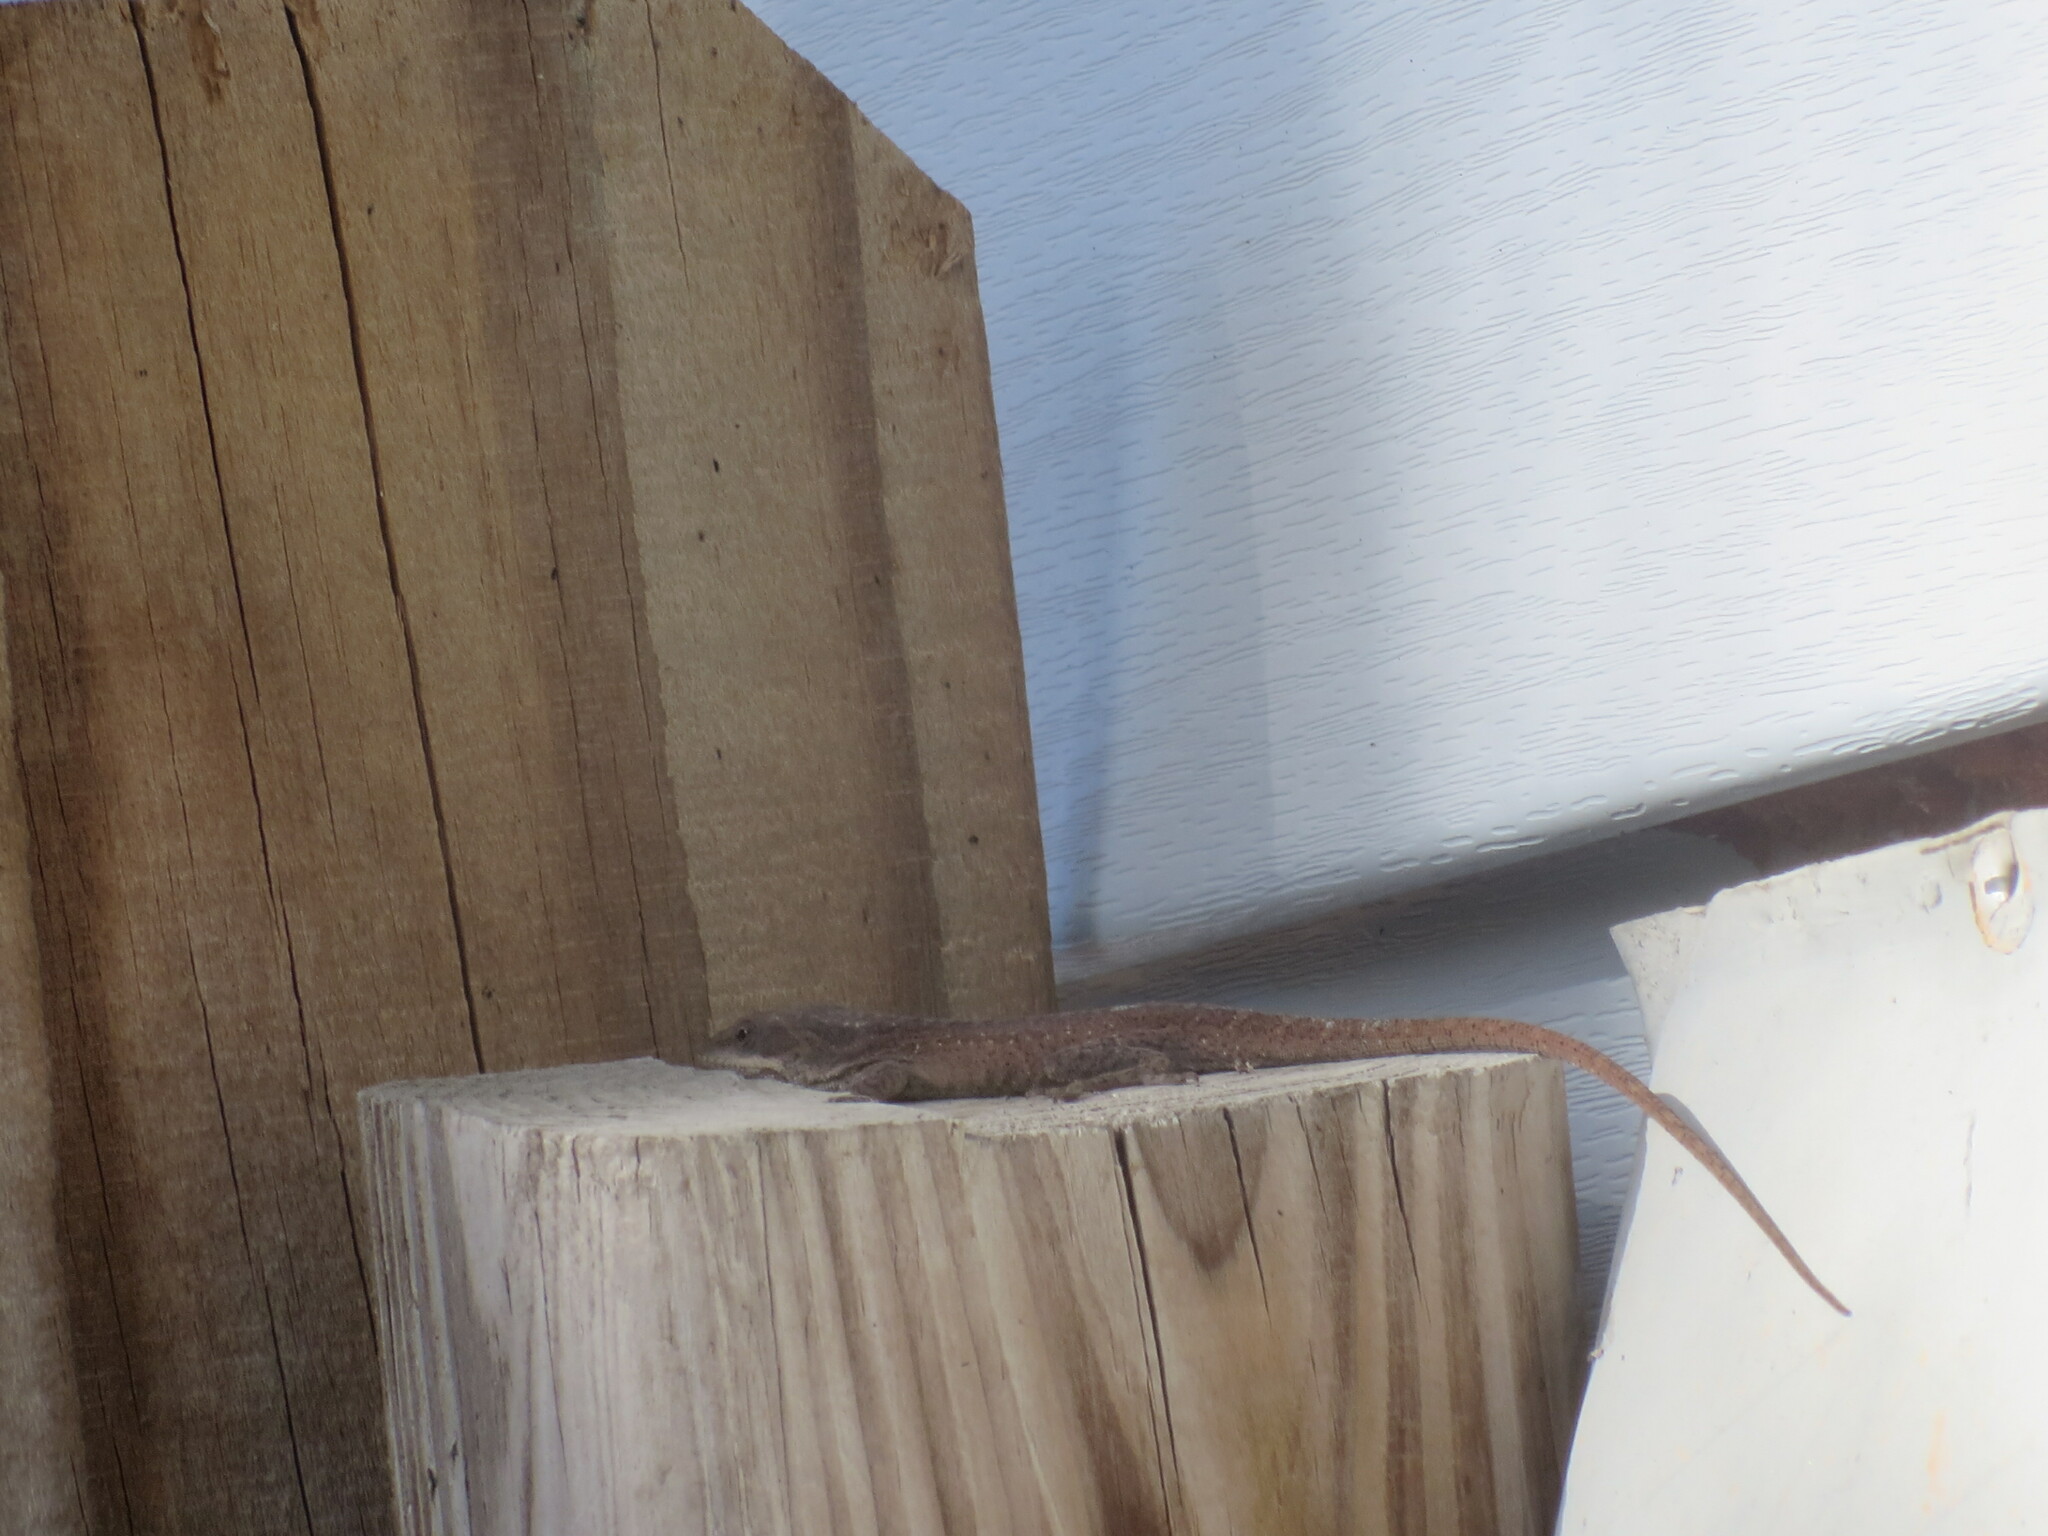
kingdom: Animalia
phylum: Chordata
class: Squamata
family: Dactyloidae
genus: Anolis
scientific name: Anolis carolinensis
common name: Green anole
